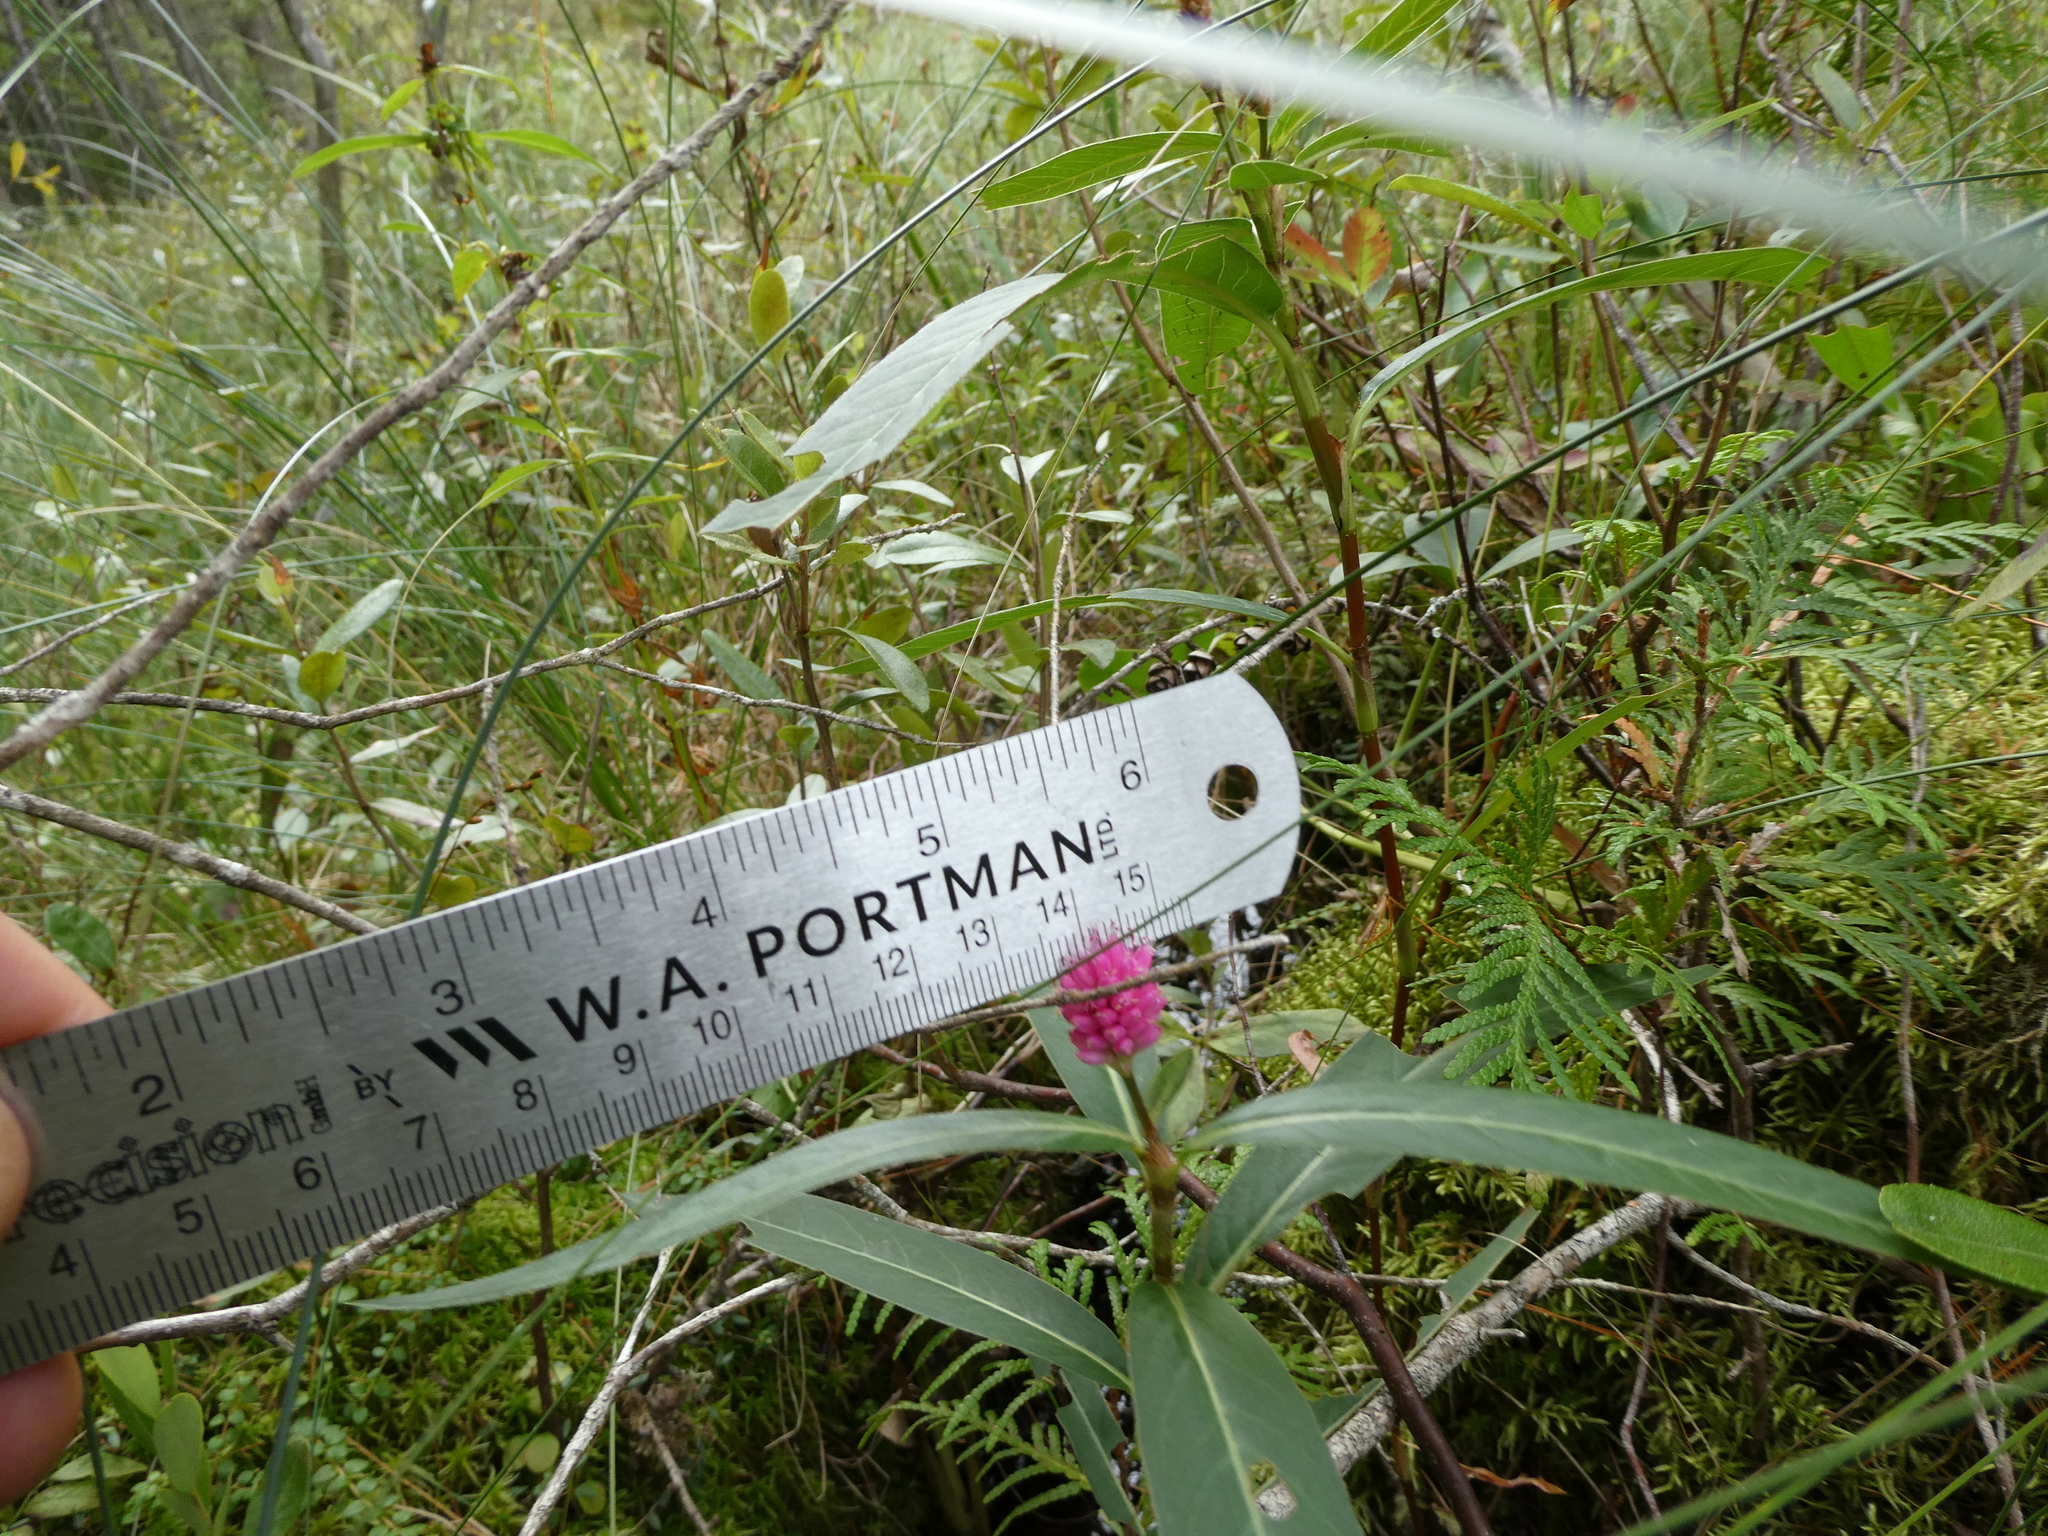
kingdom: Plantae
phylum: Tracheophyta
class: Magnoliopsida
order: Caryophyllales
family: Polygonaceae
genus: Persicaria
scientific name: Persicaria amphibia
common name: Amphibious bistort
